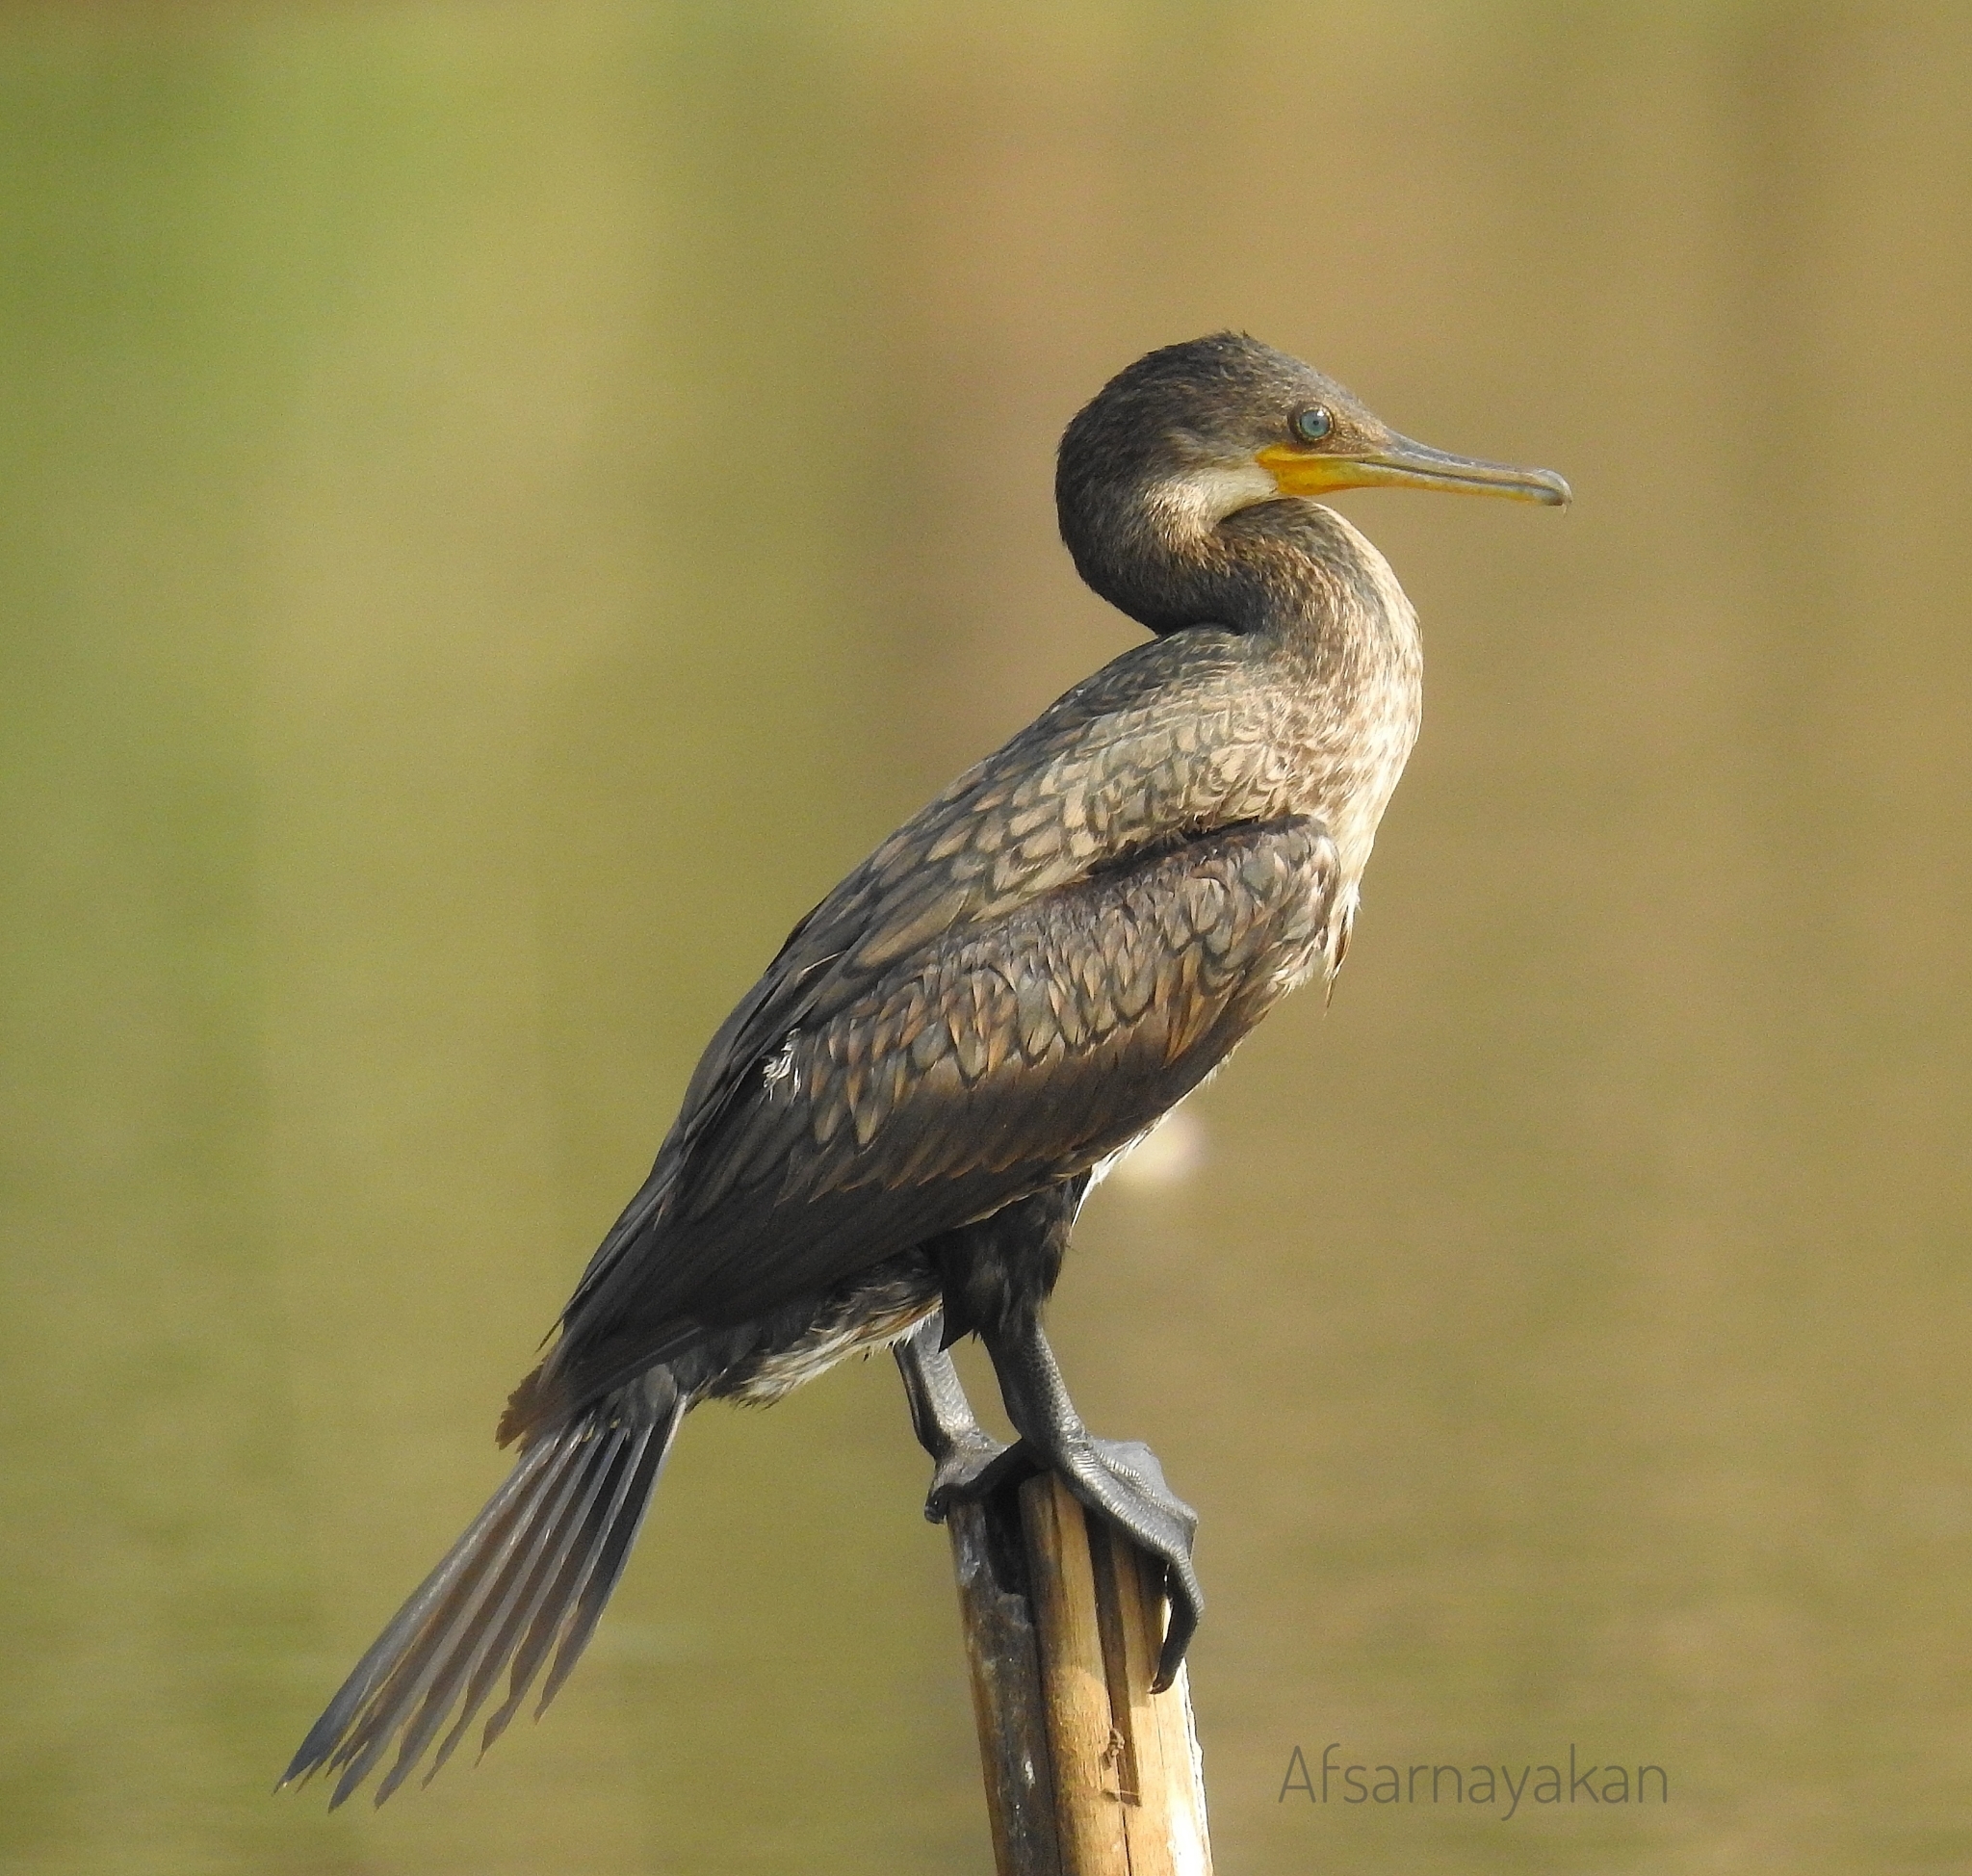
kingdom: Animalia
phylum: Chordata
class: Aves
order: Suliformes
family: Phalacrocoracidae
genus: Phalacrocorax
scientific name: Phalacrocorax fuscicollis
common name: Indian cormorant
